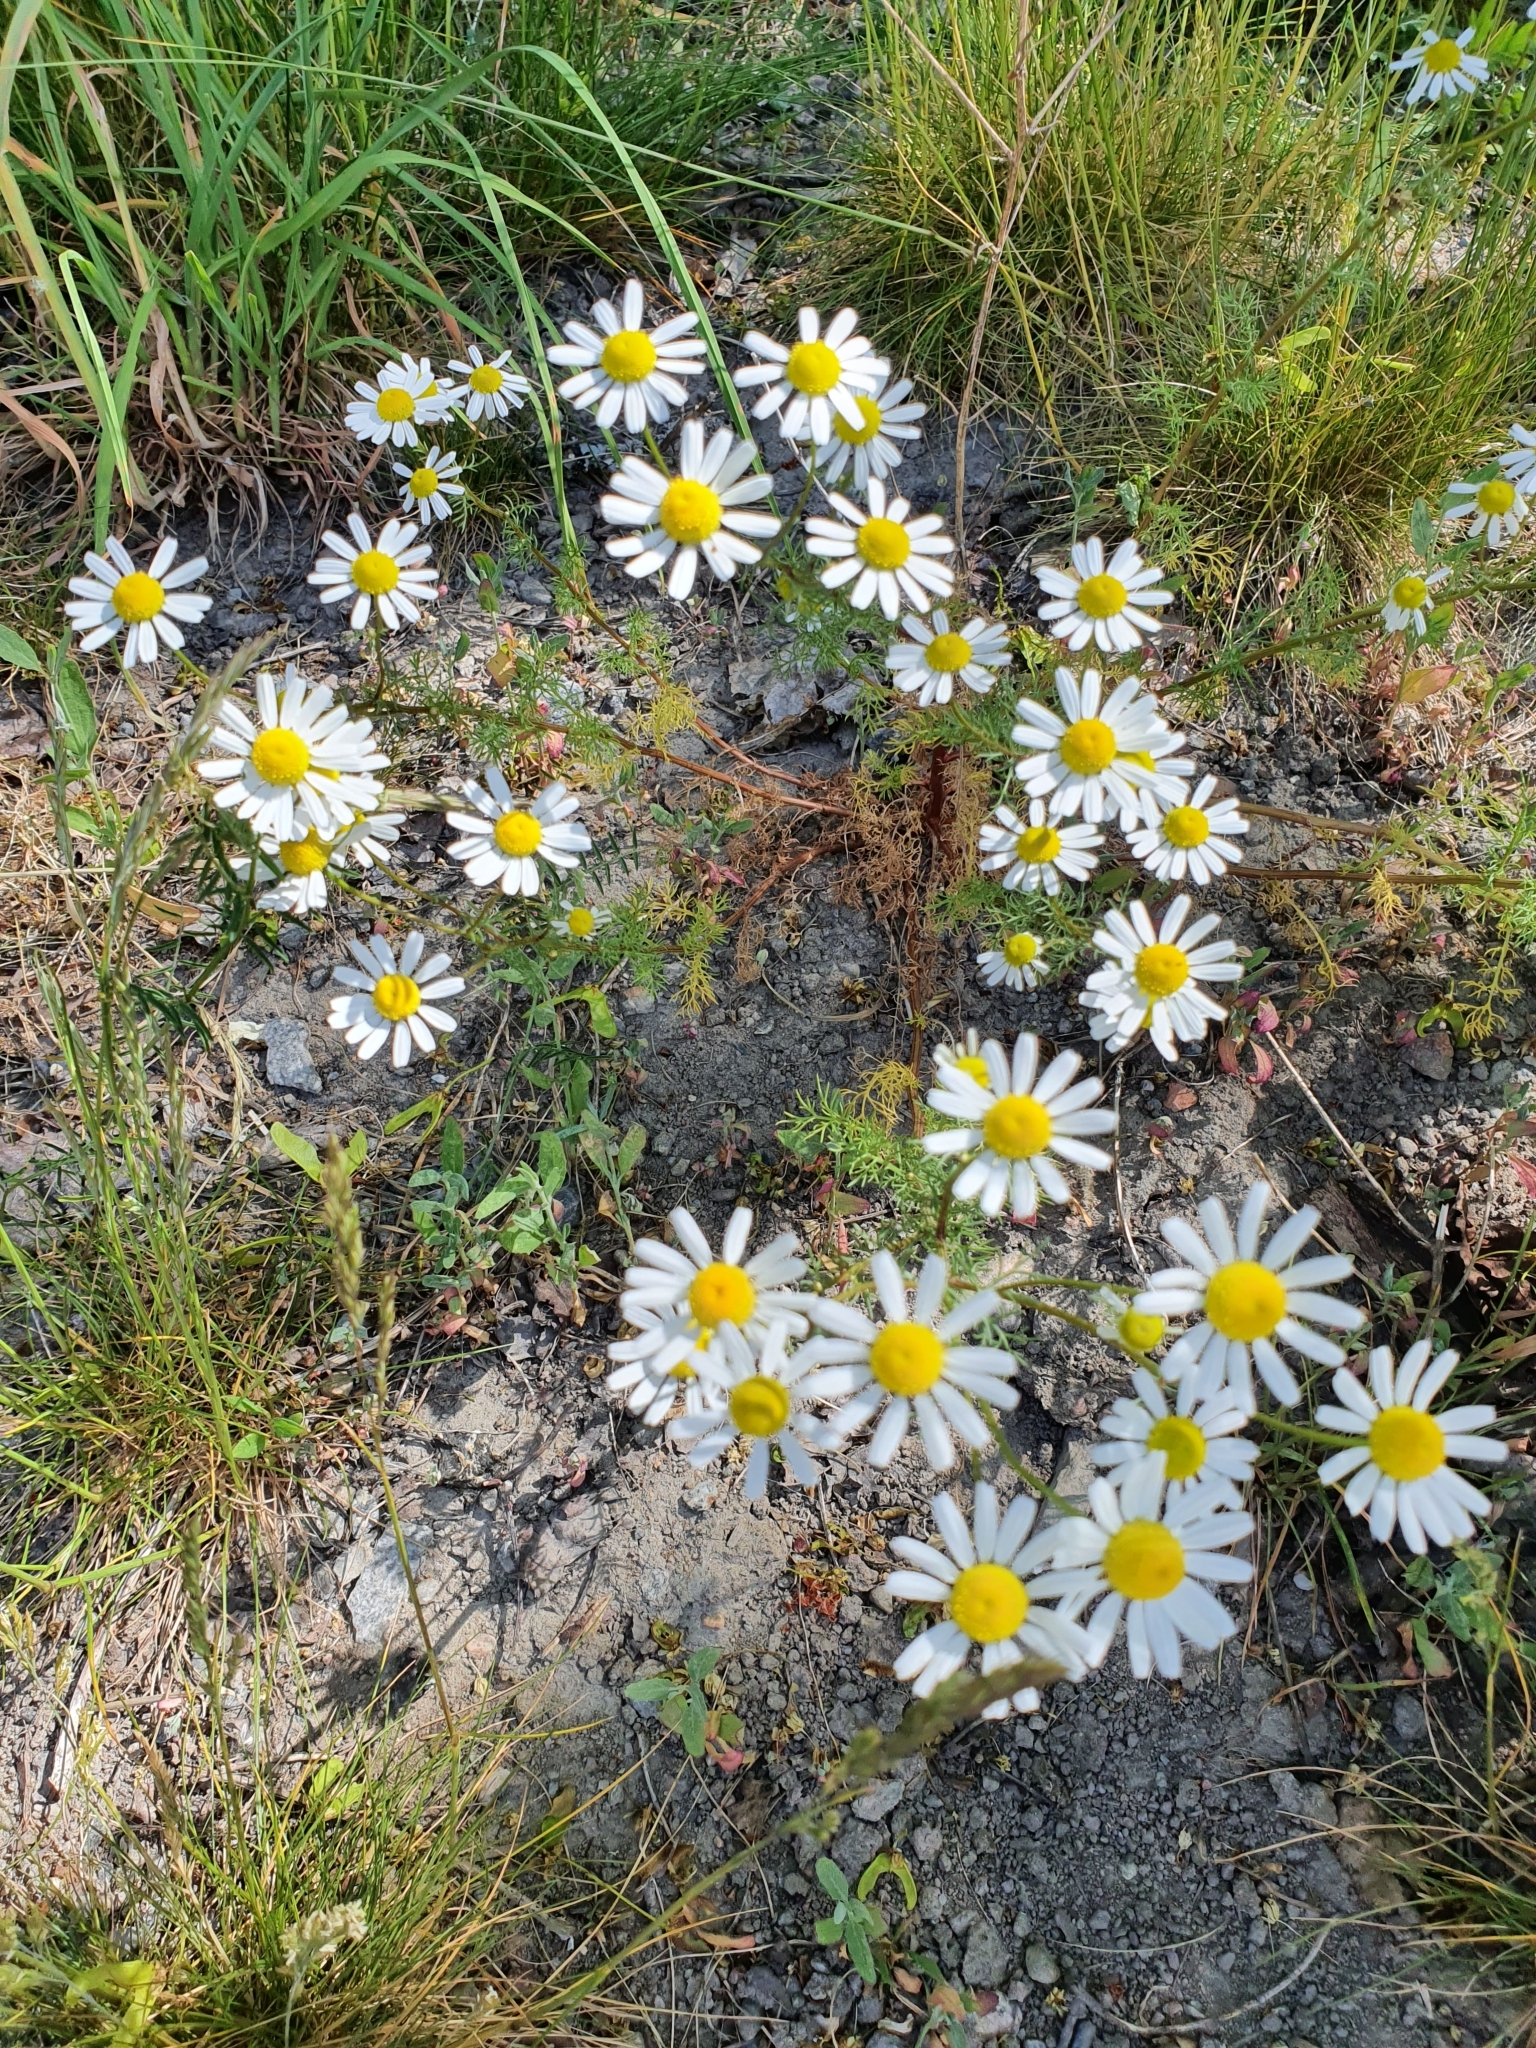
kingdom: Plantae
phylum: Tracheophyta
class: Magnoliopsida
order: Asterales
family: Asteraceae
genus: Tripleurospermum
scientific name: Tripleurospermum inodorum
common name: Scentless mayweed
